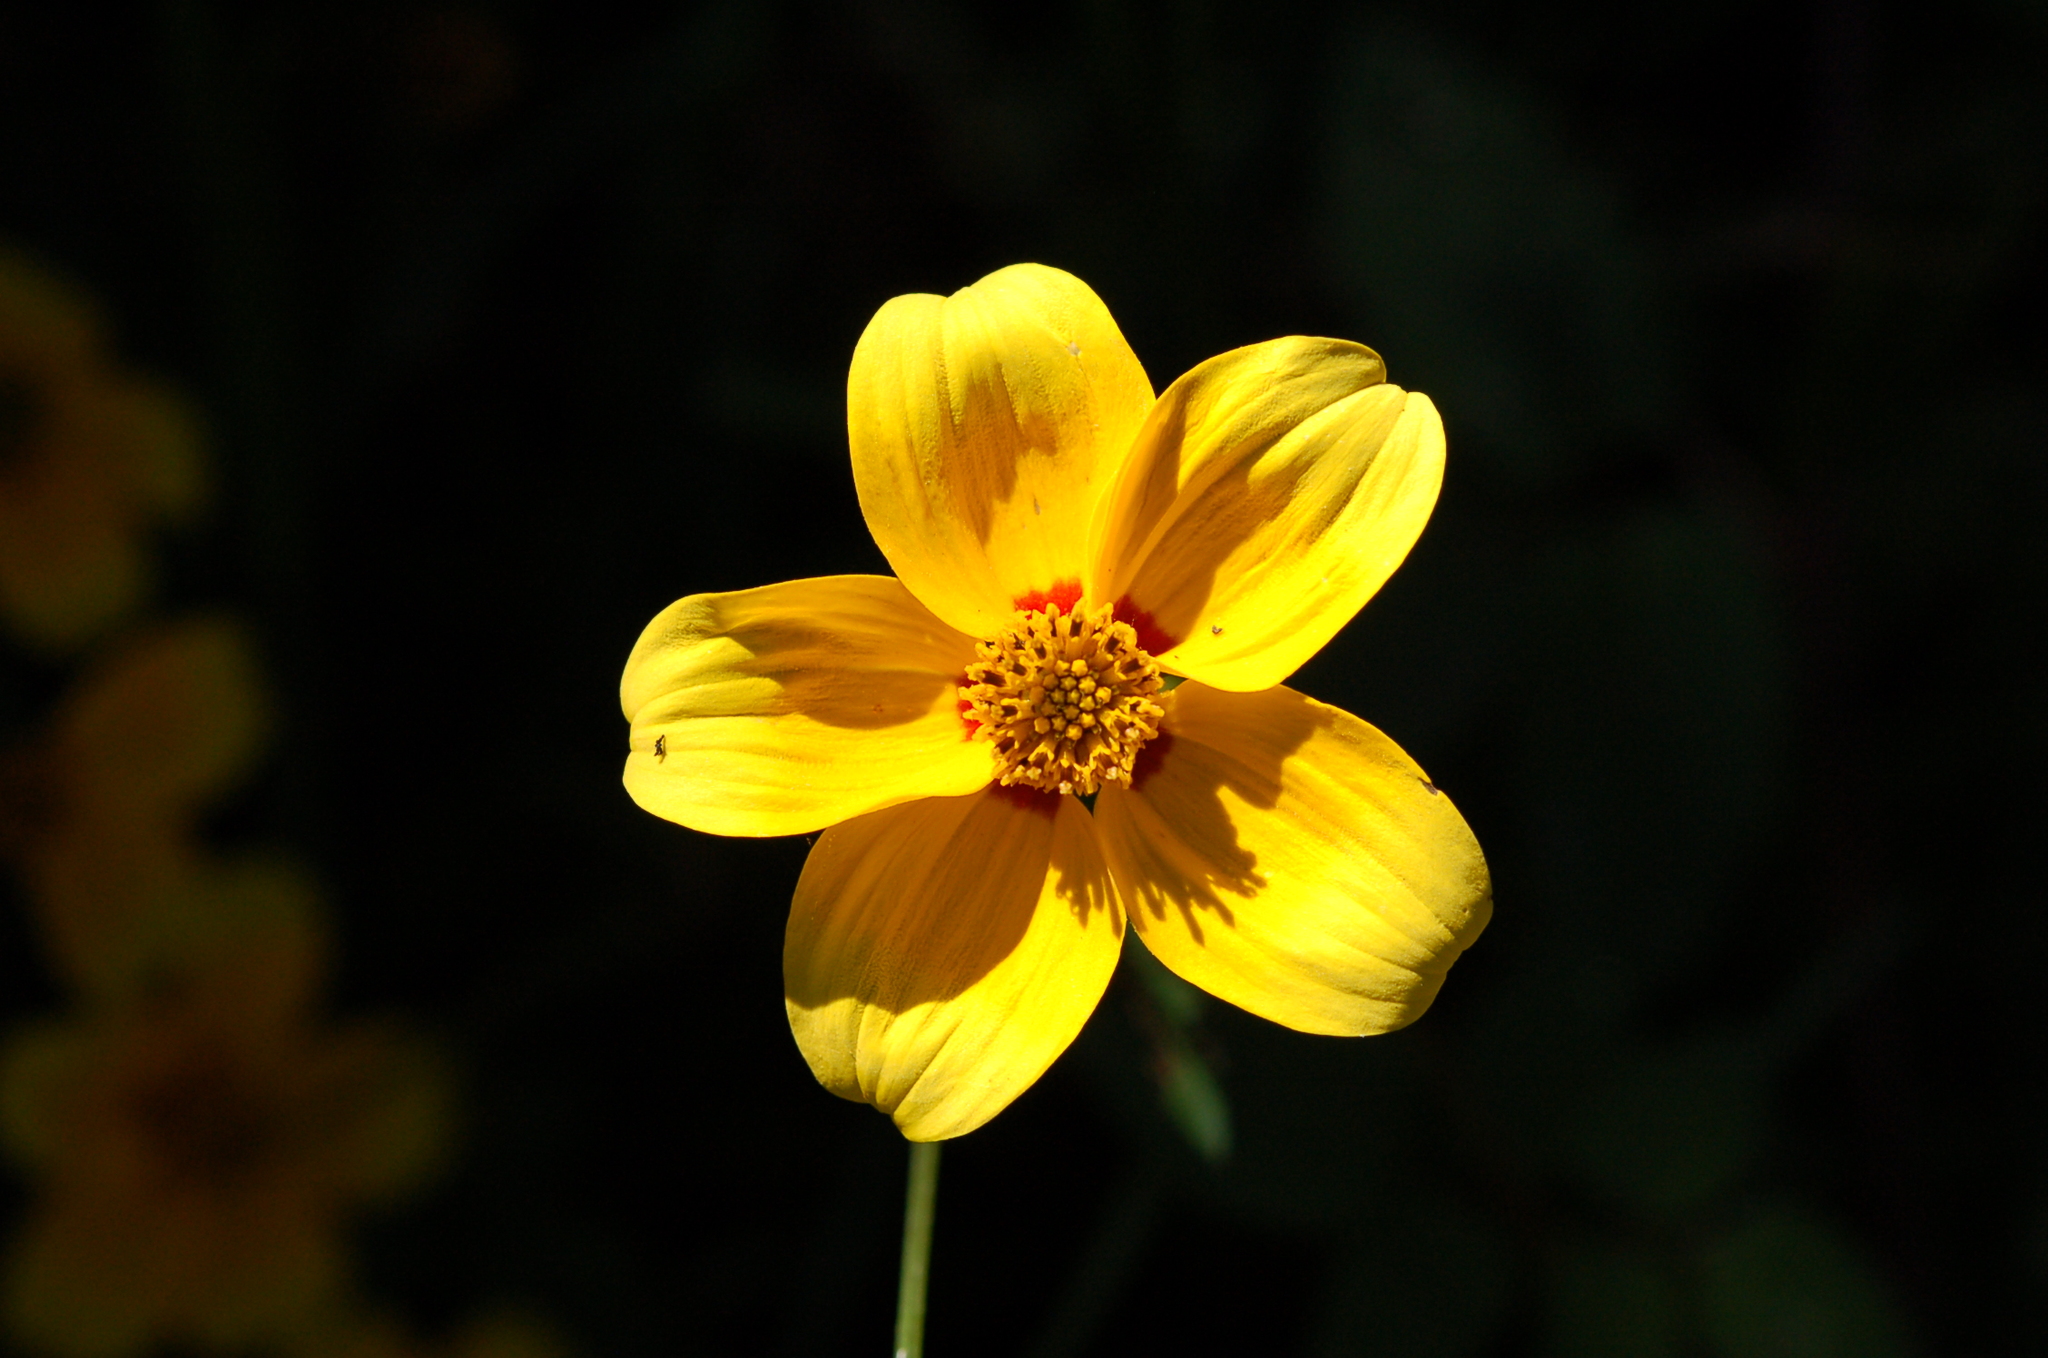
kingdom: Plantae
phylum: Tracheophyta
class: Magnoliopsida
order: Asterales
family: Asteraceae
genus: Bidens
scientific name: Bidens bicolor
